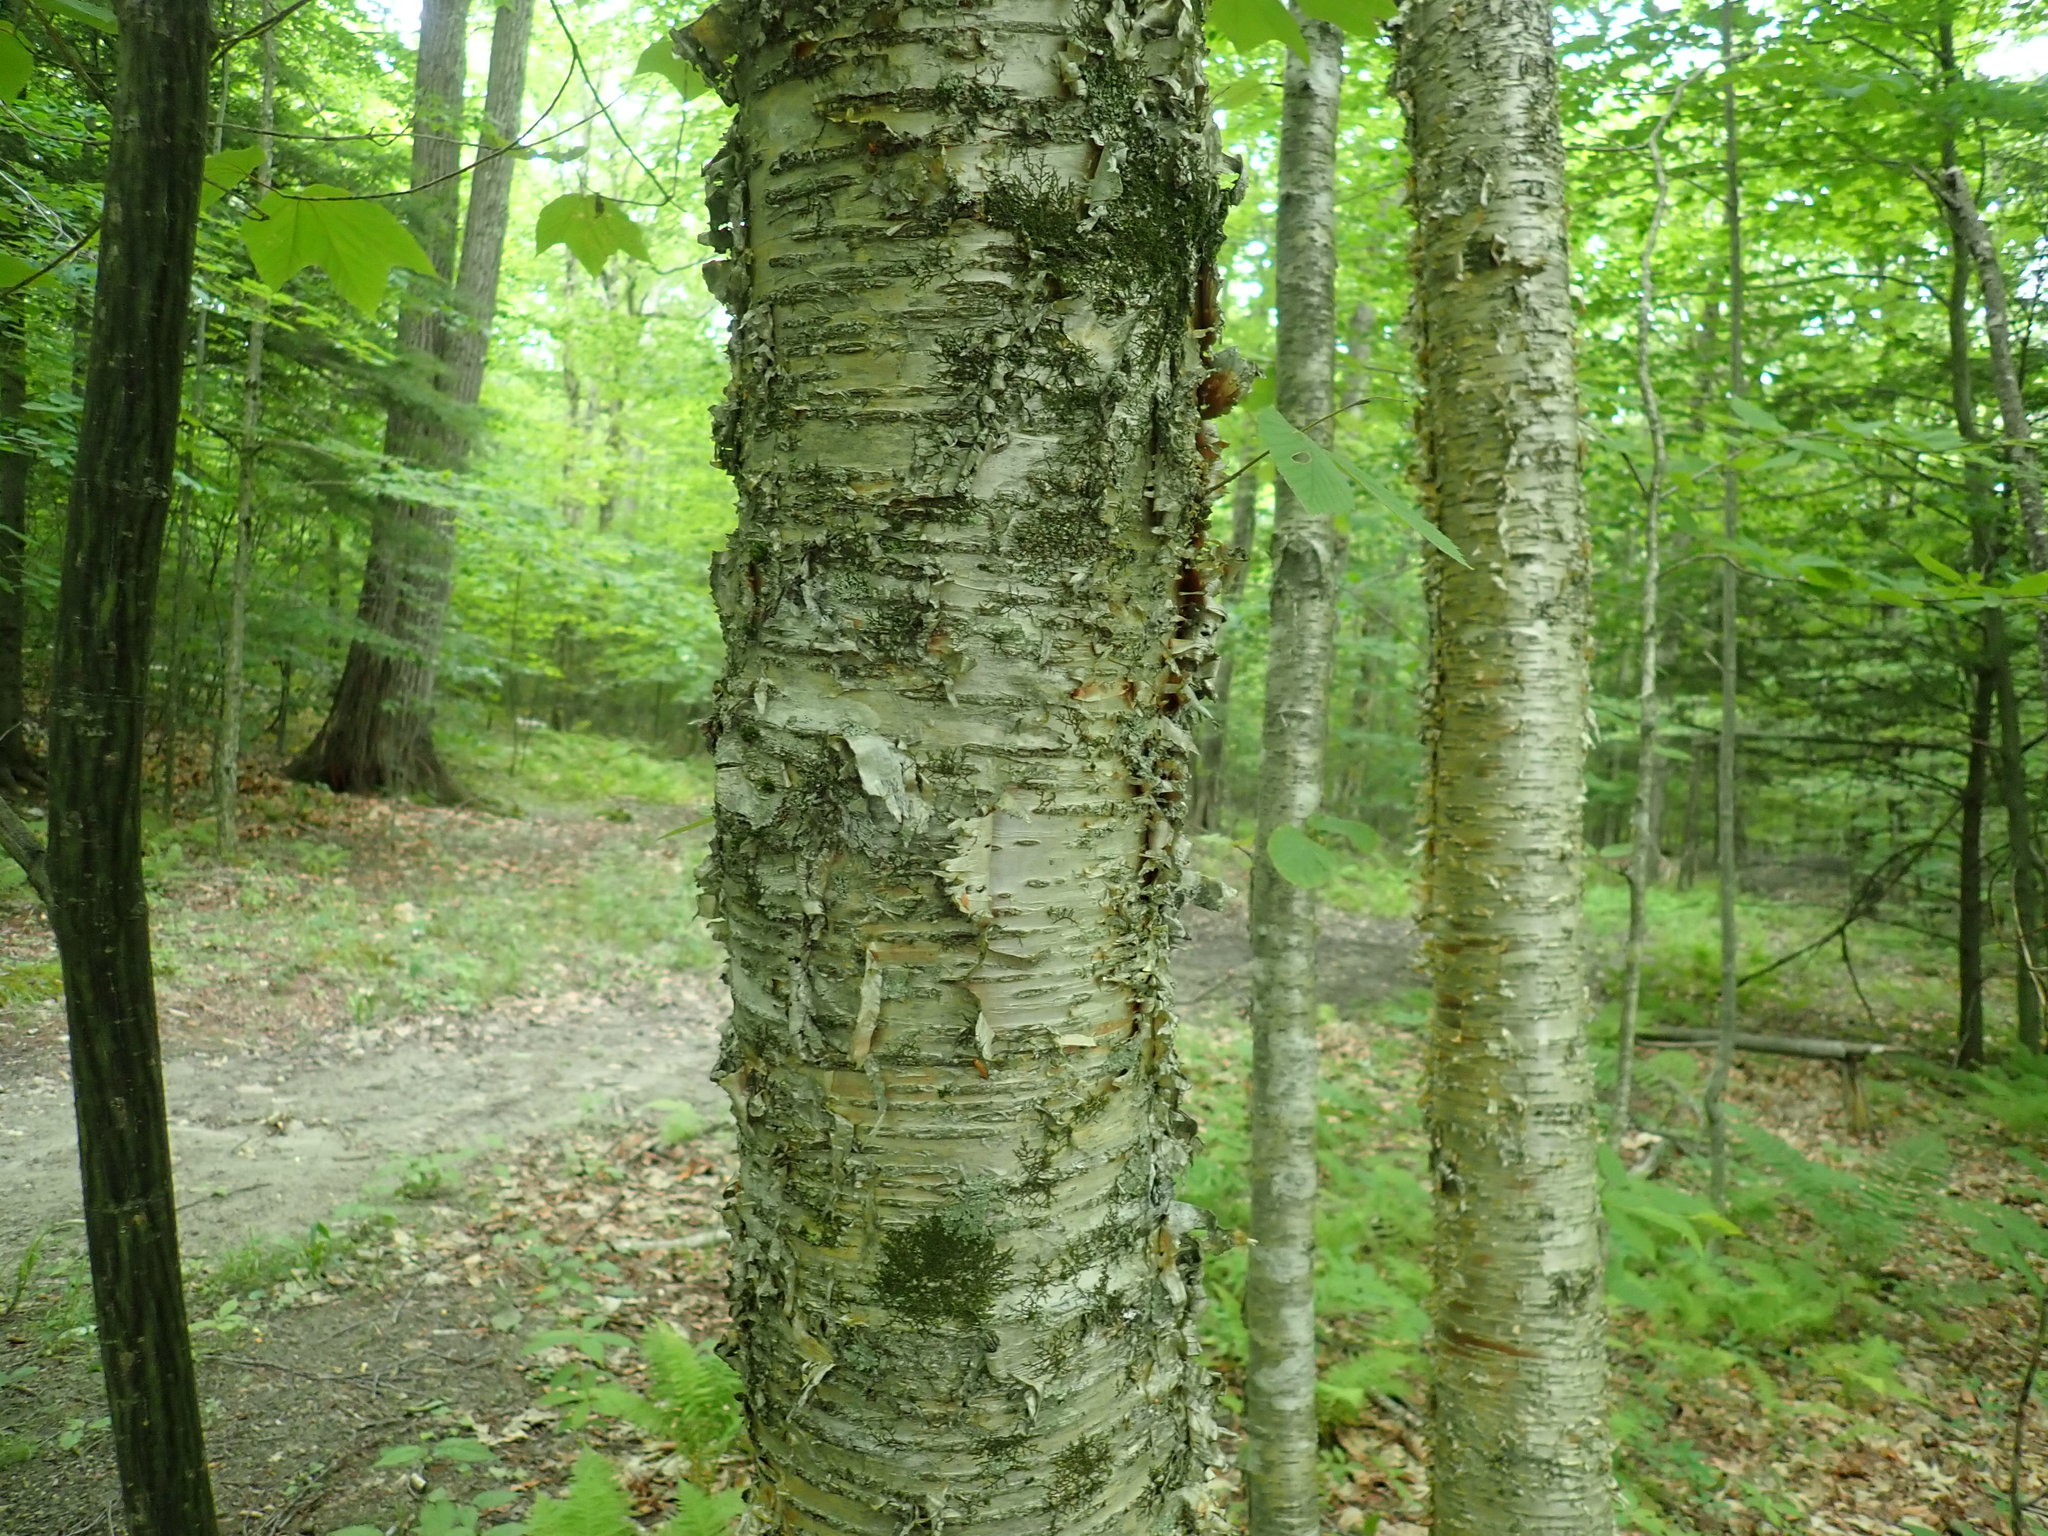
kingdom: Plantae
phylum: Tracheophyta
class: Magnoliopsida
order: Fagales
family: Betulaceae
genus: Betula
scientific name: Betula alleghaniensis
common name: Yellow birch
